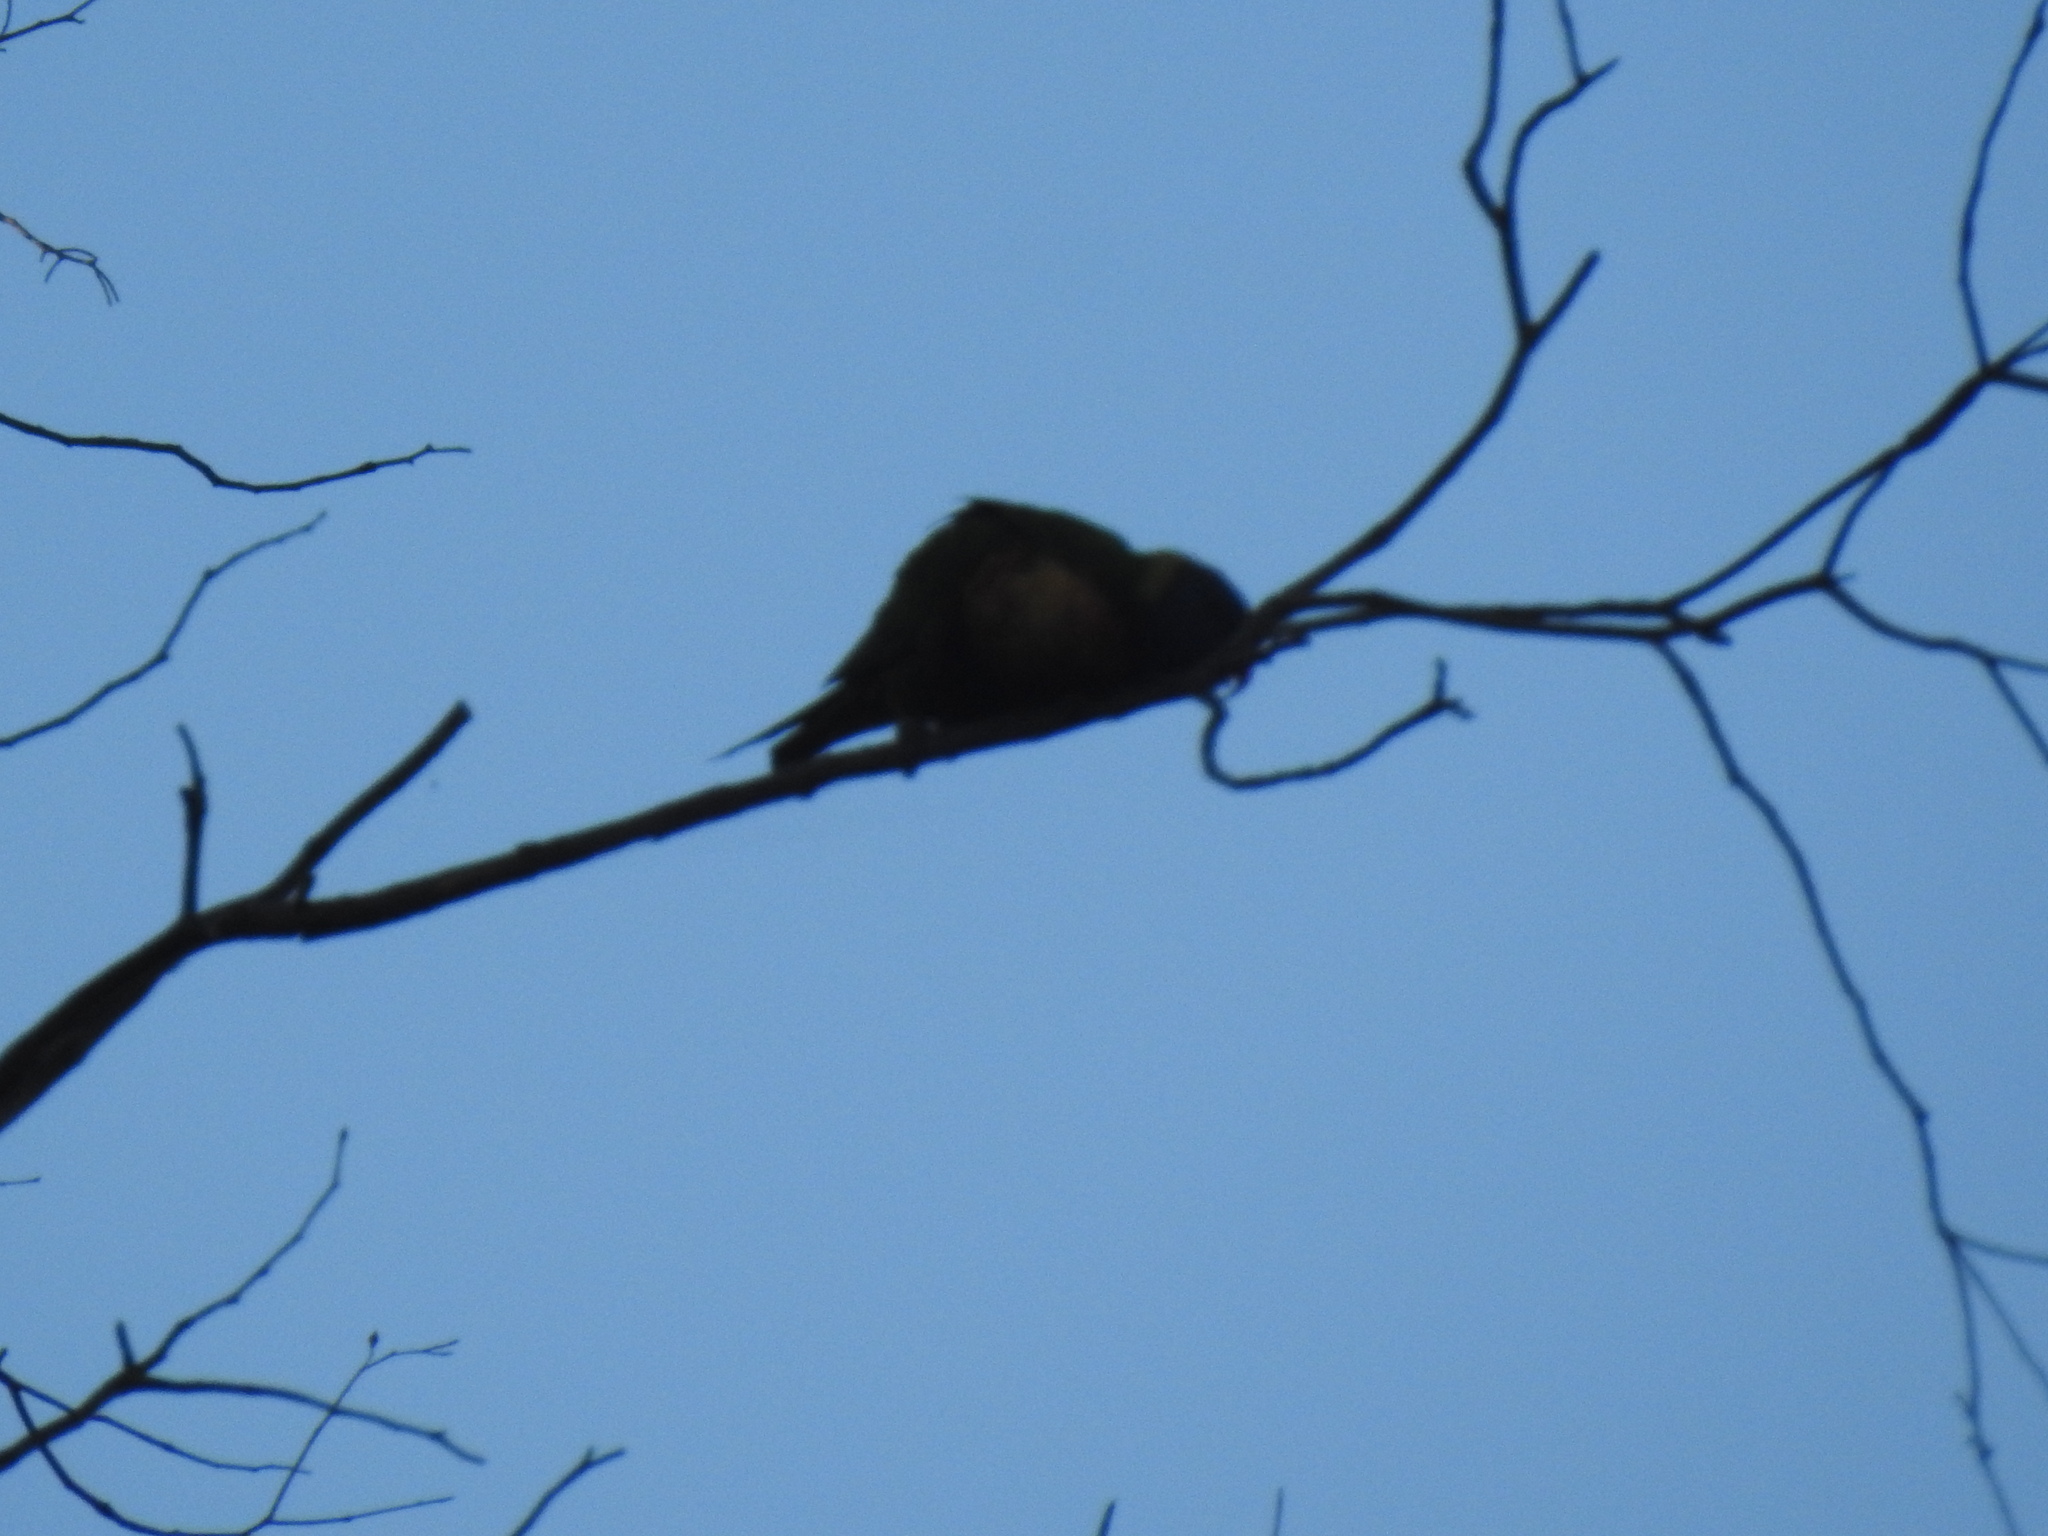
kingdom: Animalia
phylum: Chordata
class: Aves
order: Psittaciformes
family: Psittacidae
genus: Trichoglossus
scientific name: Trichoglossus haematodus
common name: Coconut lorikeet
